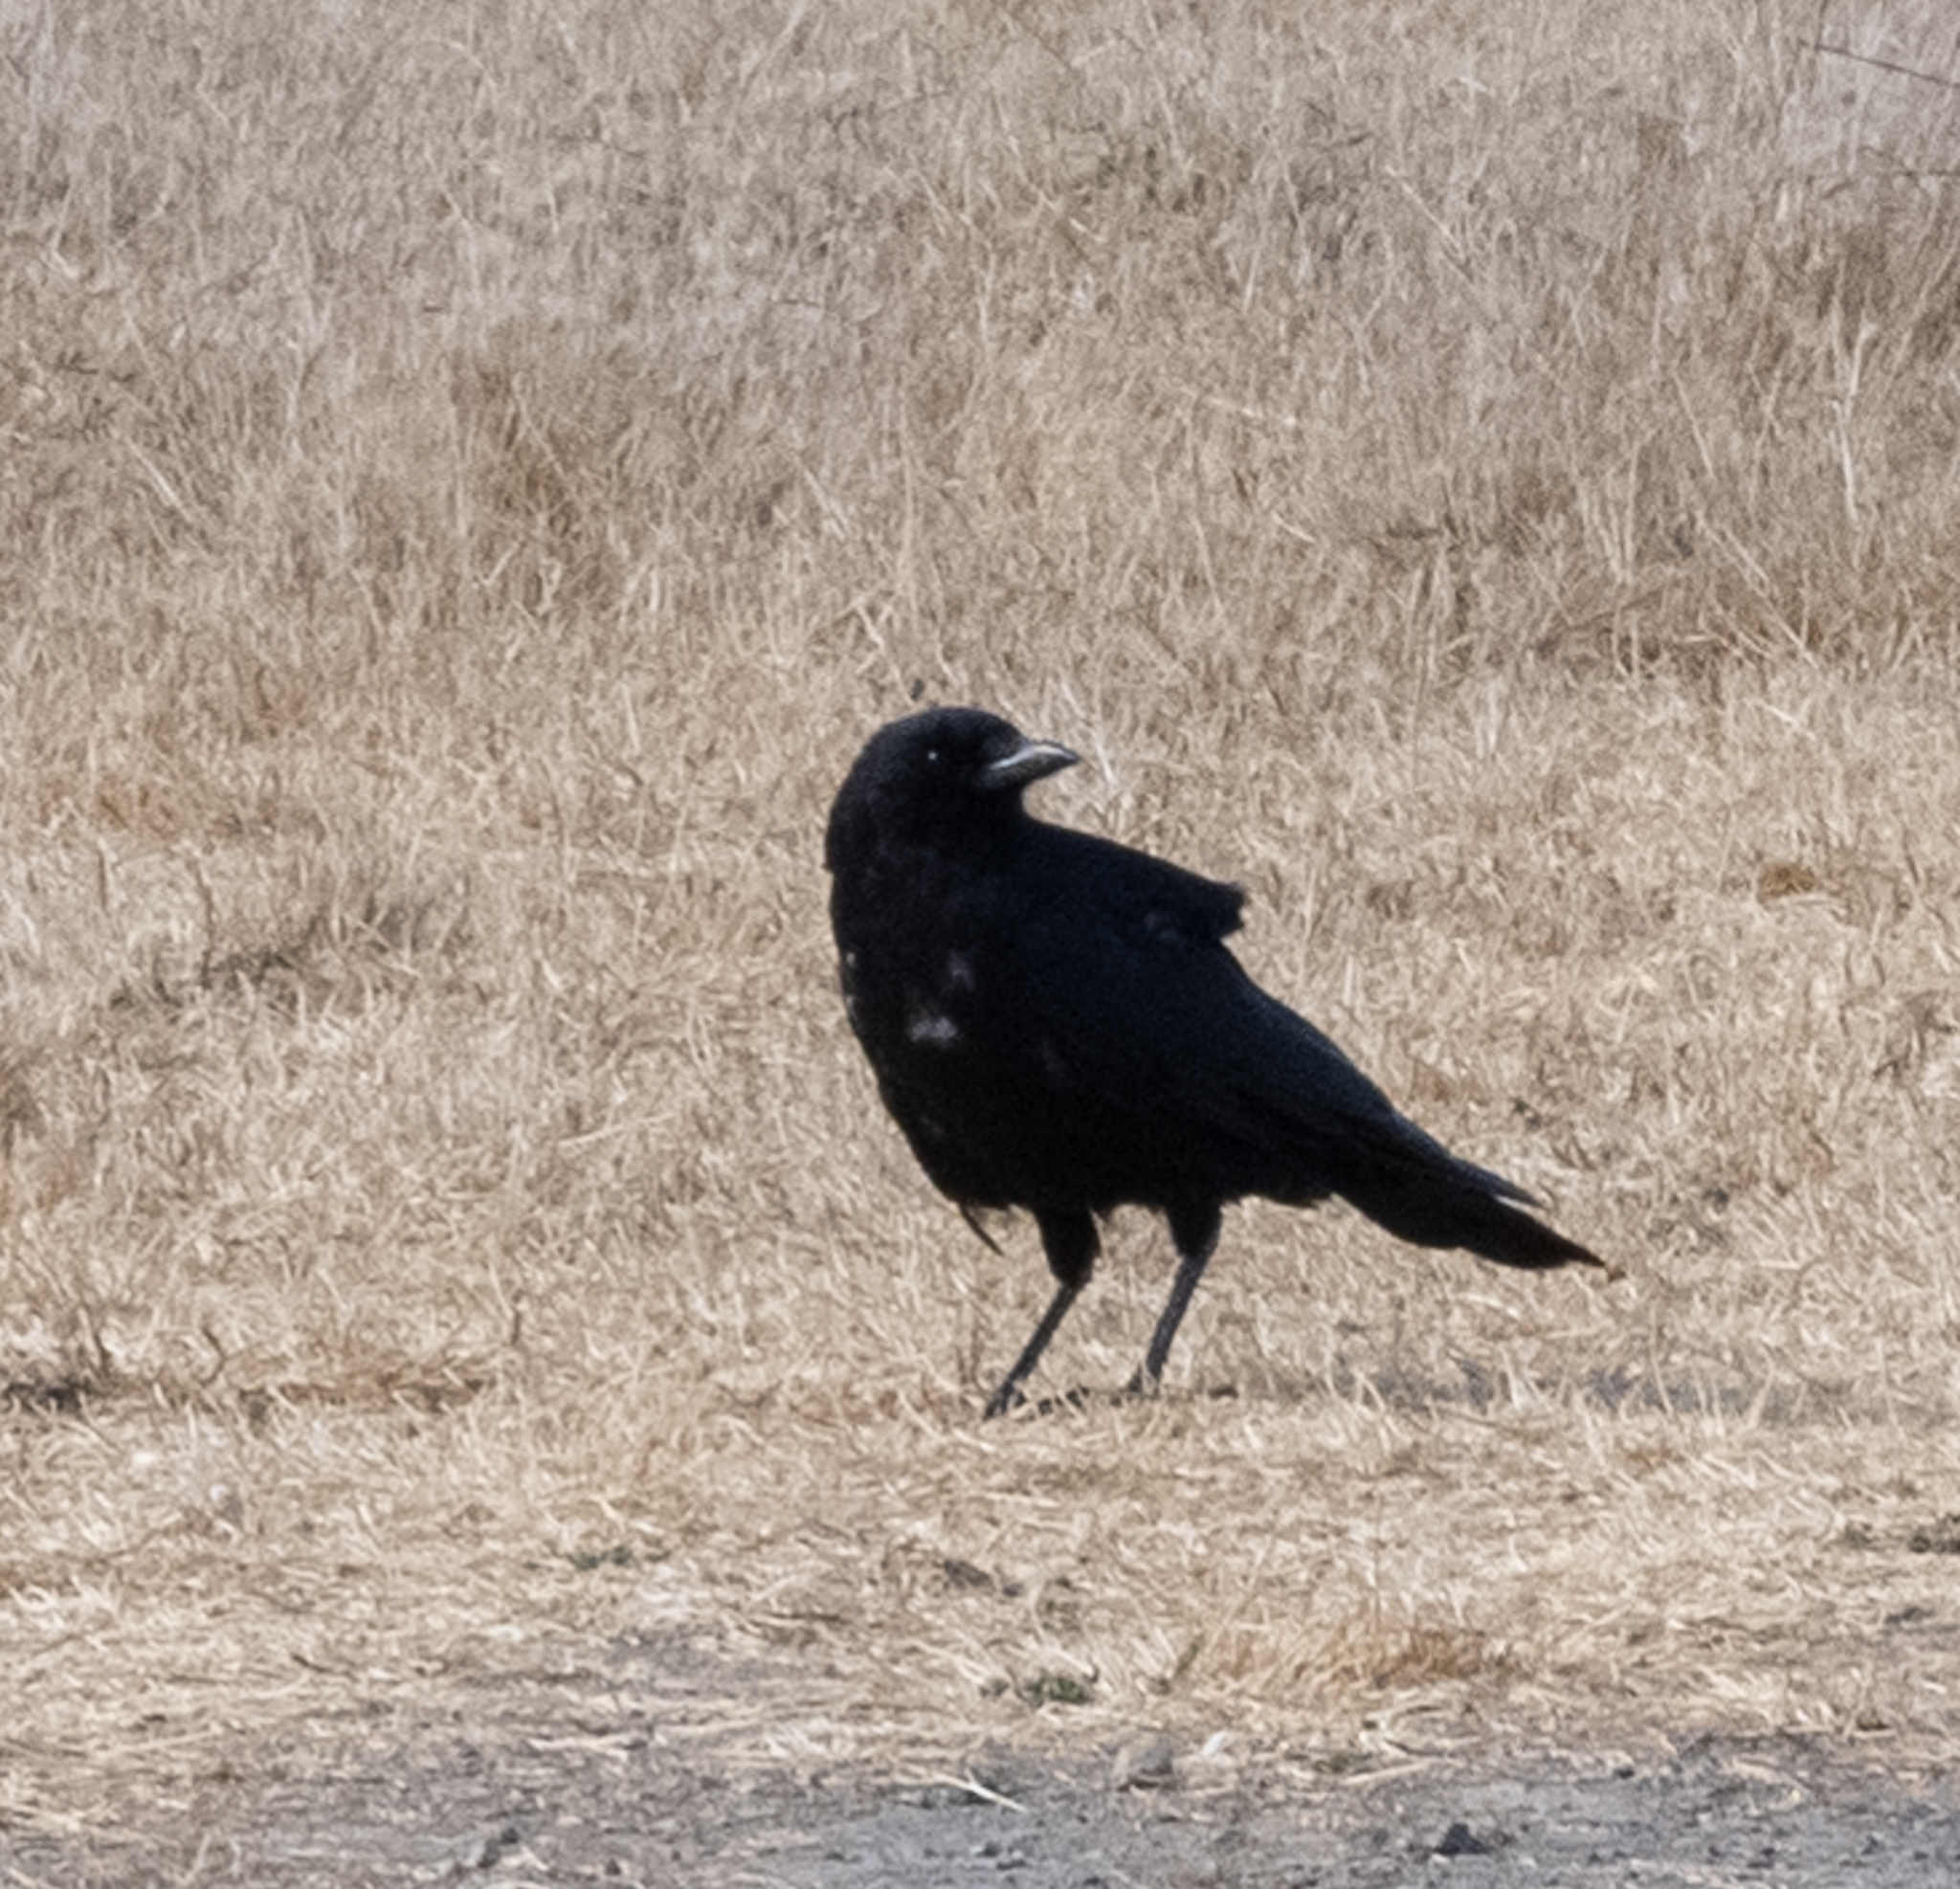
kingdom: Animalia
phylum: Chordata
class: Aves
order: Passeriformes
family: Corvidae
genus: Corvus
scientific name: Corvus brachyrhynchos
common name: American crow
